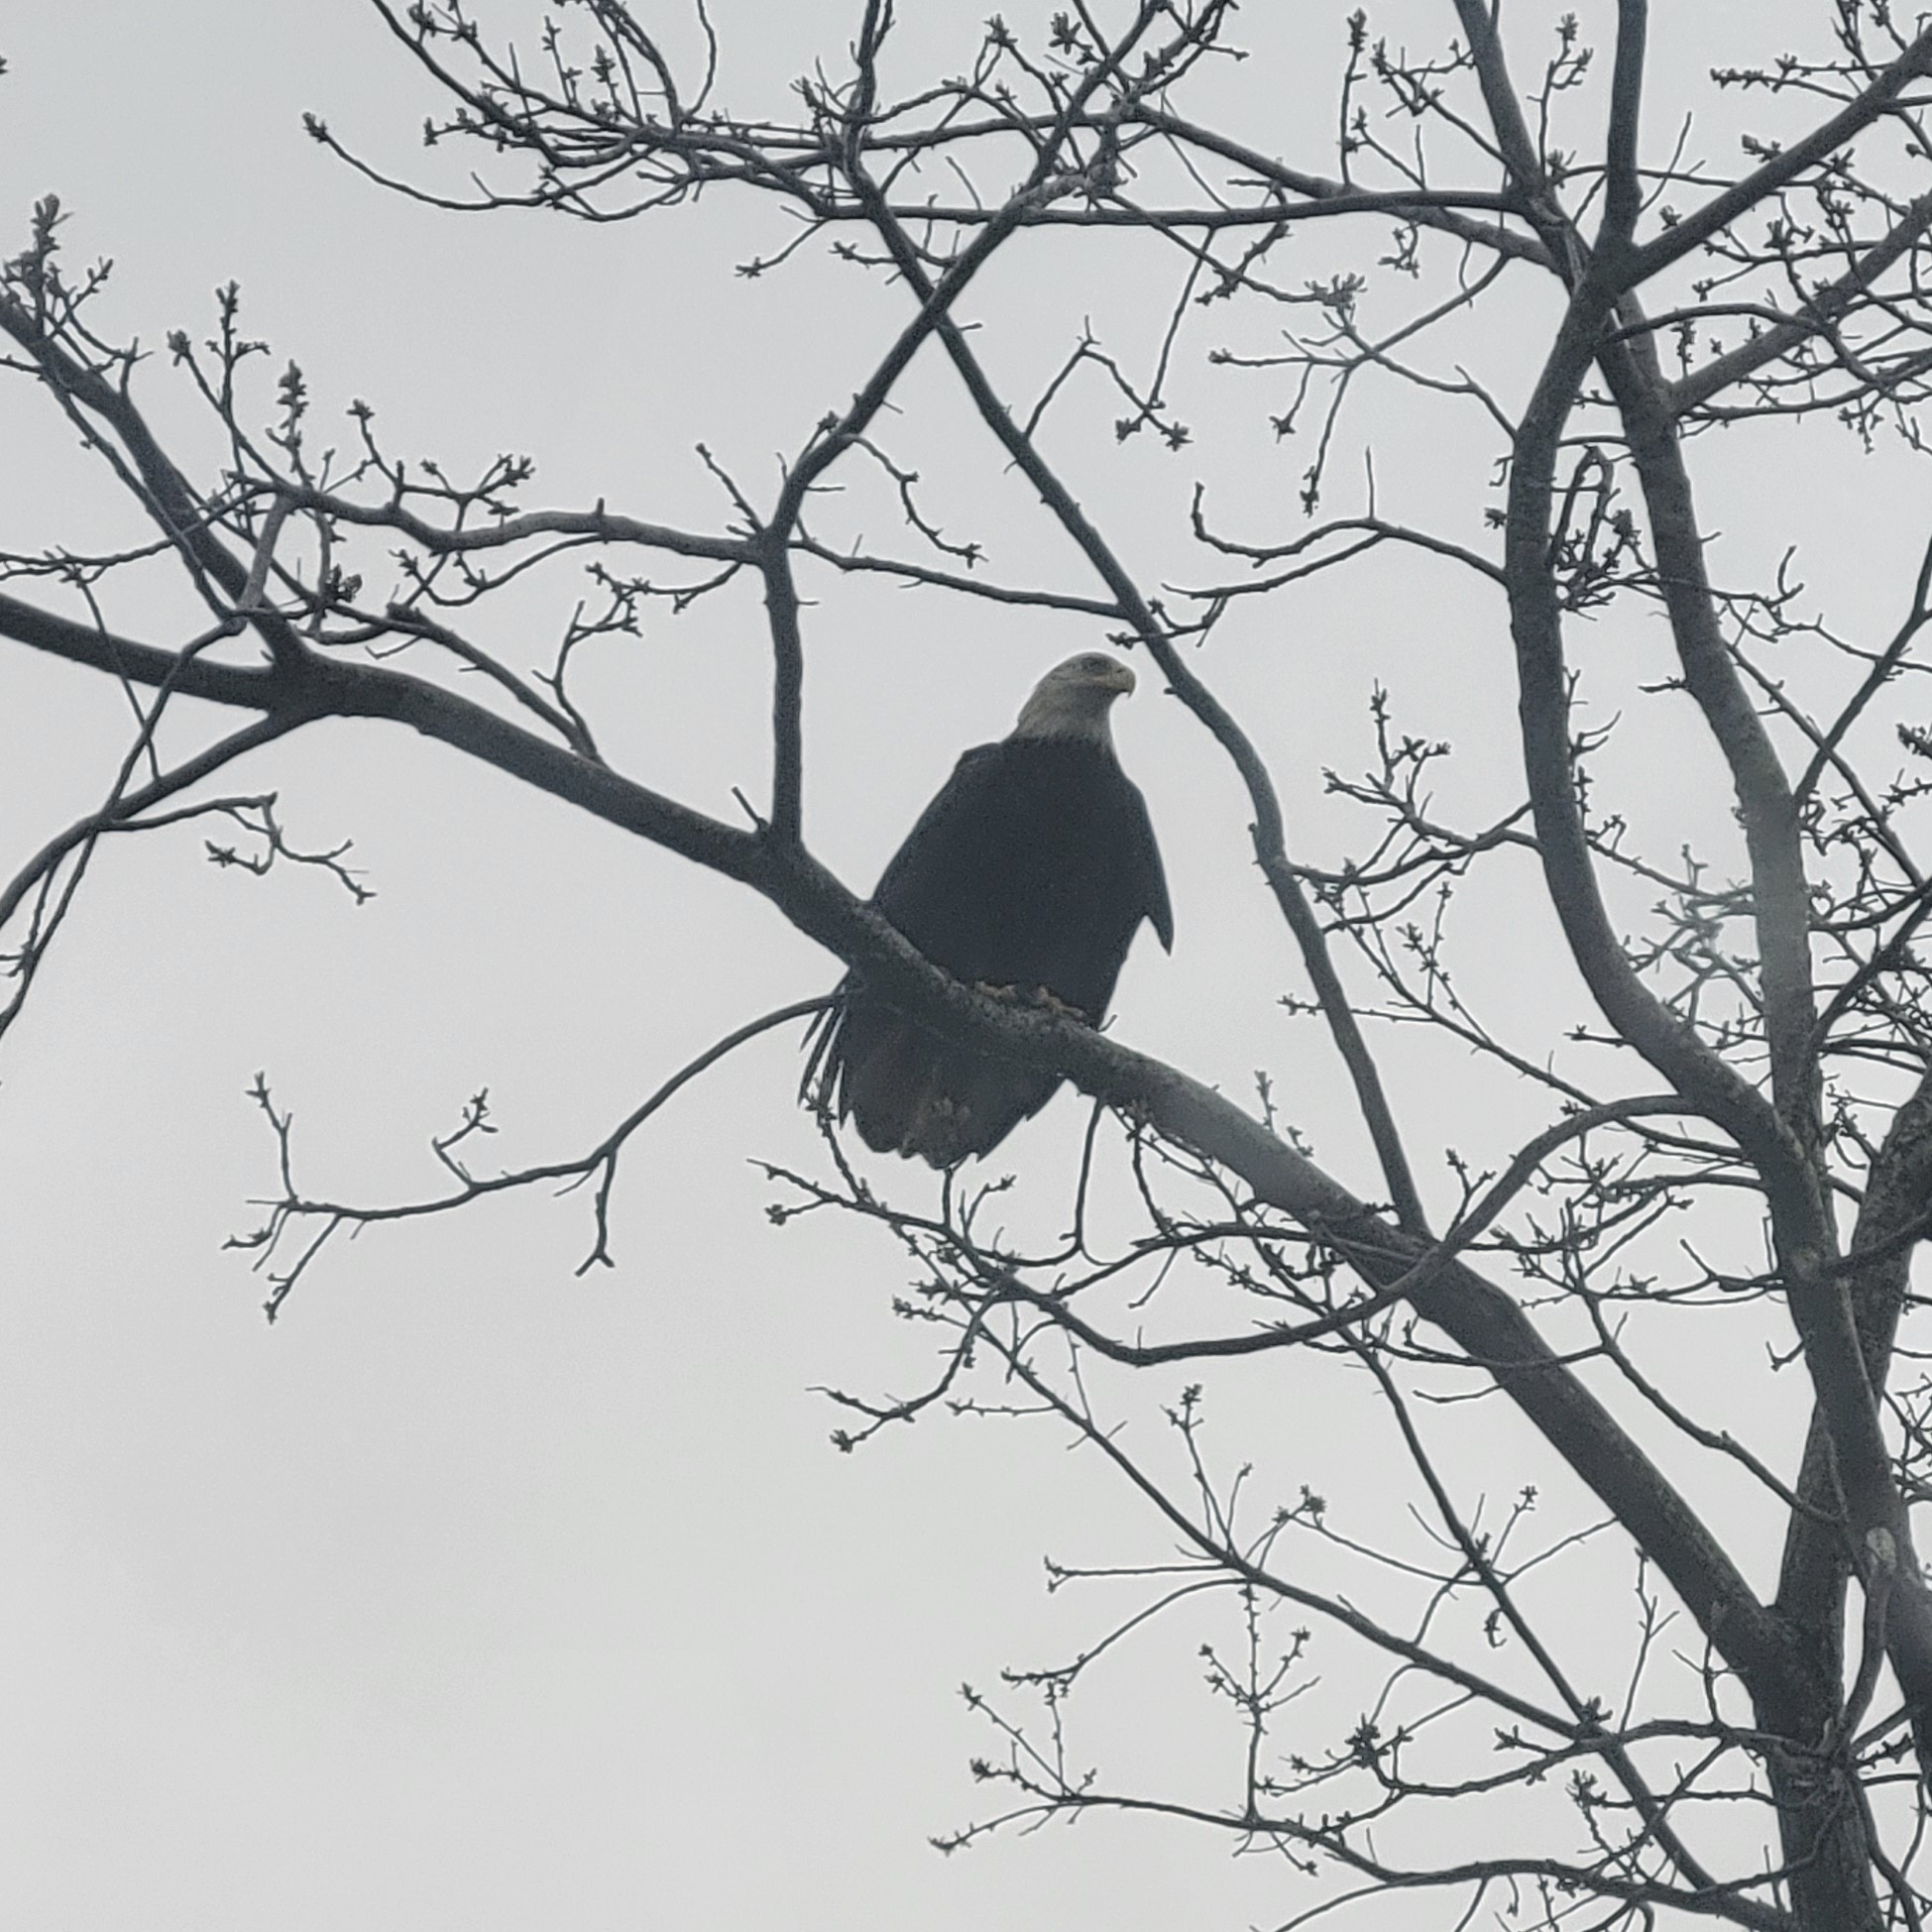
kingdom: Animalia
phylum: Chordata
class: Aves
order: Accipitriformes
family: Accipitridae
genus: Haliaeetus
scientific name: Haliaeetus leucocephalus
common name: Bald eagle
